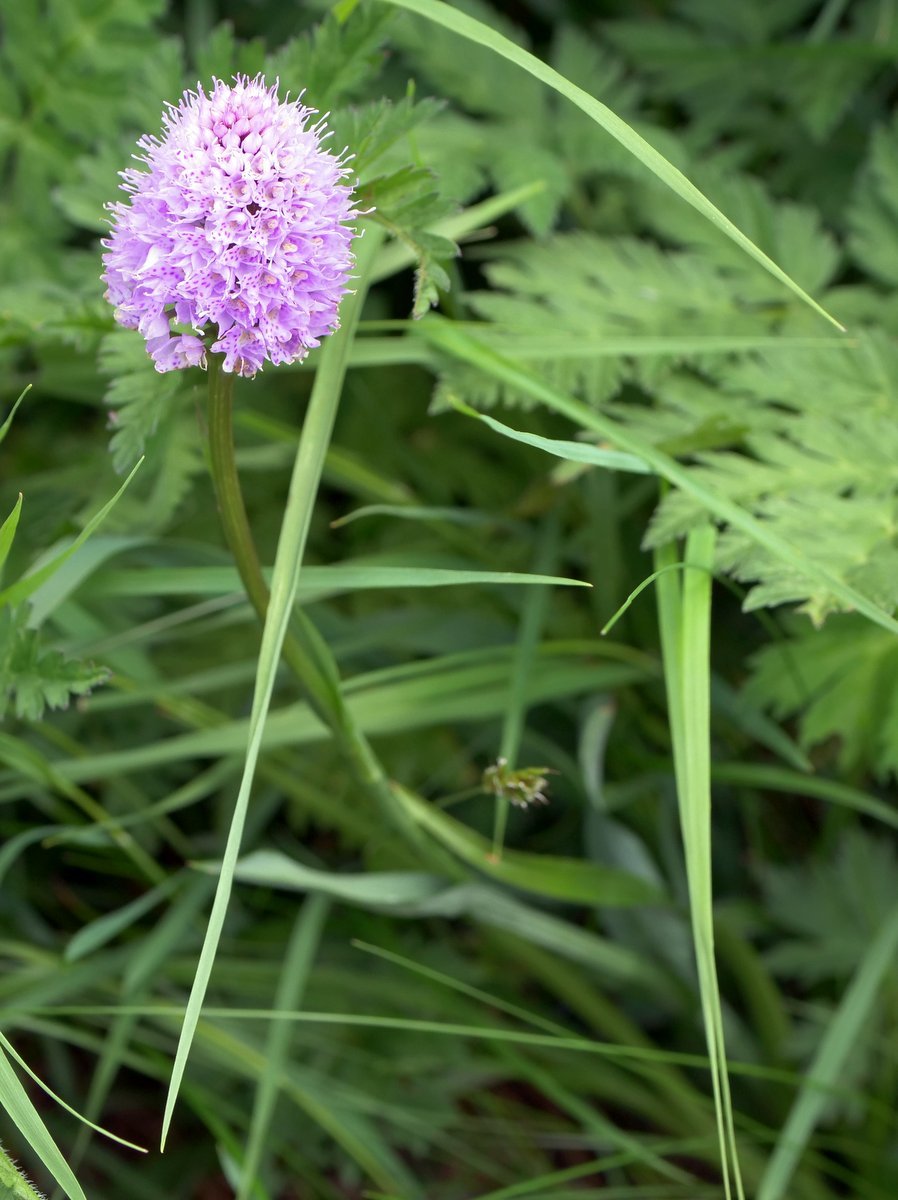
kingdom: Plantae
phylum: Tracheophyta
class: Liliopsida
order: Asparagales
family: Orchidaceae
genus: Traunsteinera
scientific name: Traunsteinera globosa
